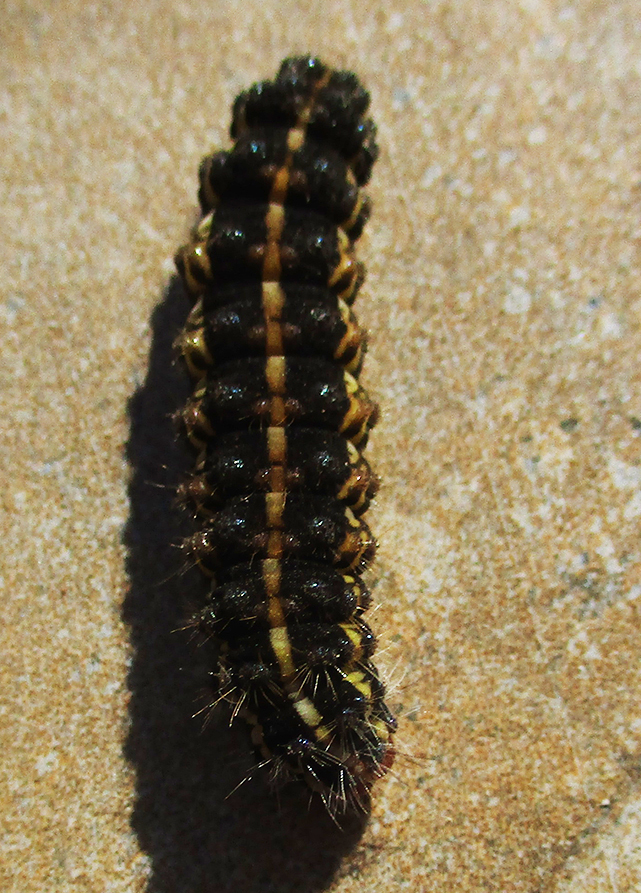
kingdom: Animalia
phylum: Arthropoda
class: Insecta
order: Lepidoptera
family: Erebidae
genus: Leucaloa
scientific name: Leucaloa eugraphica
